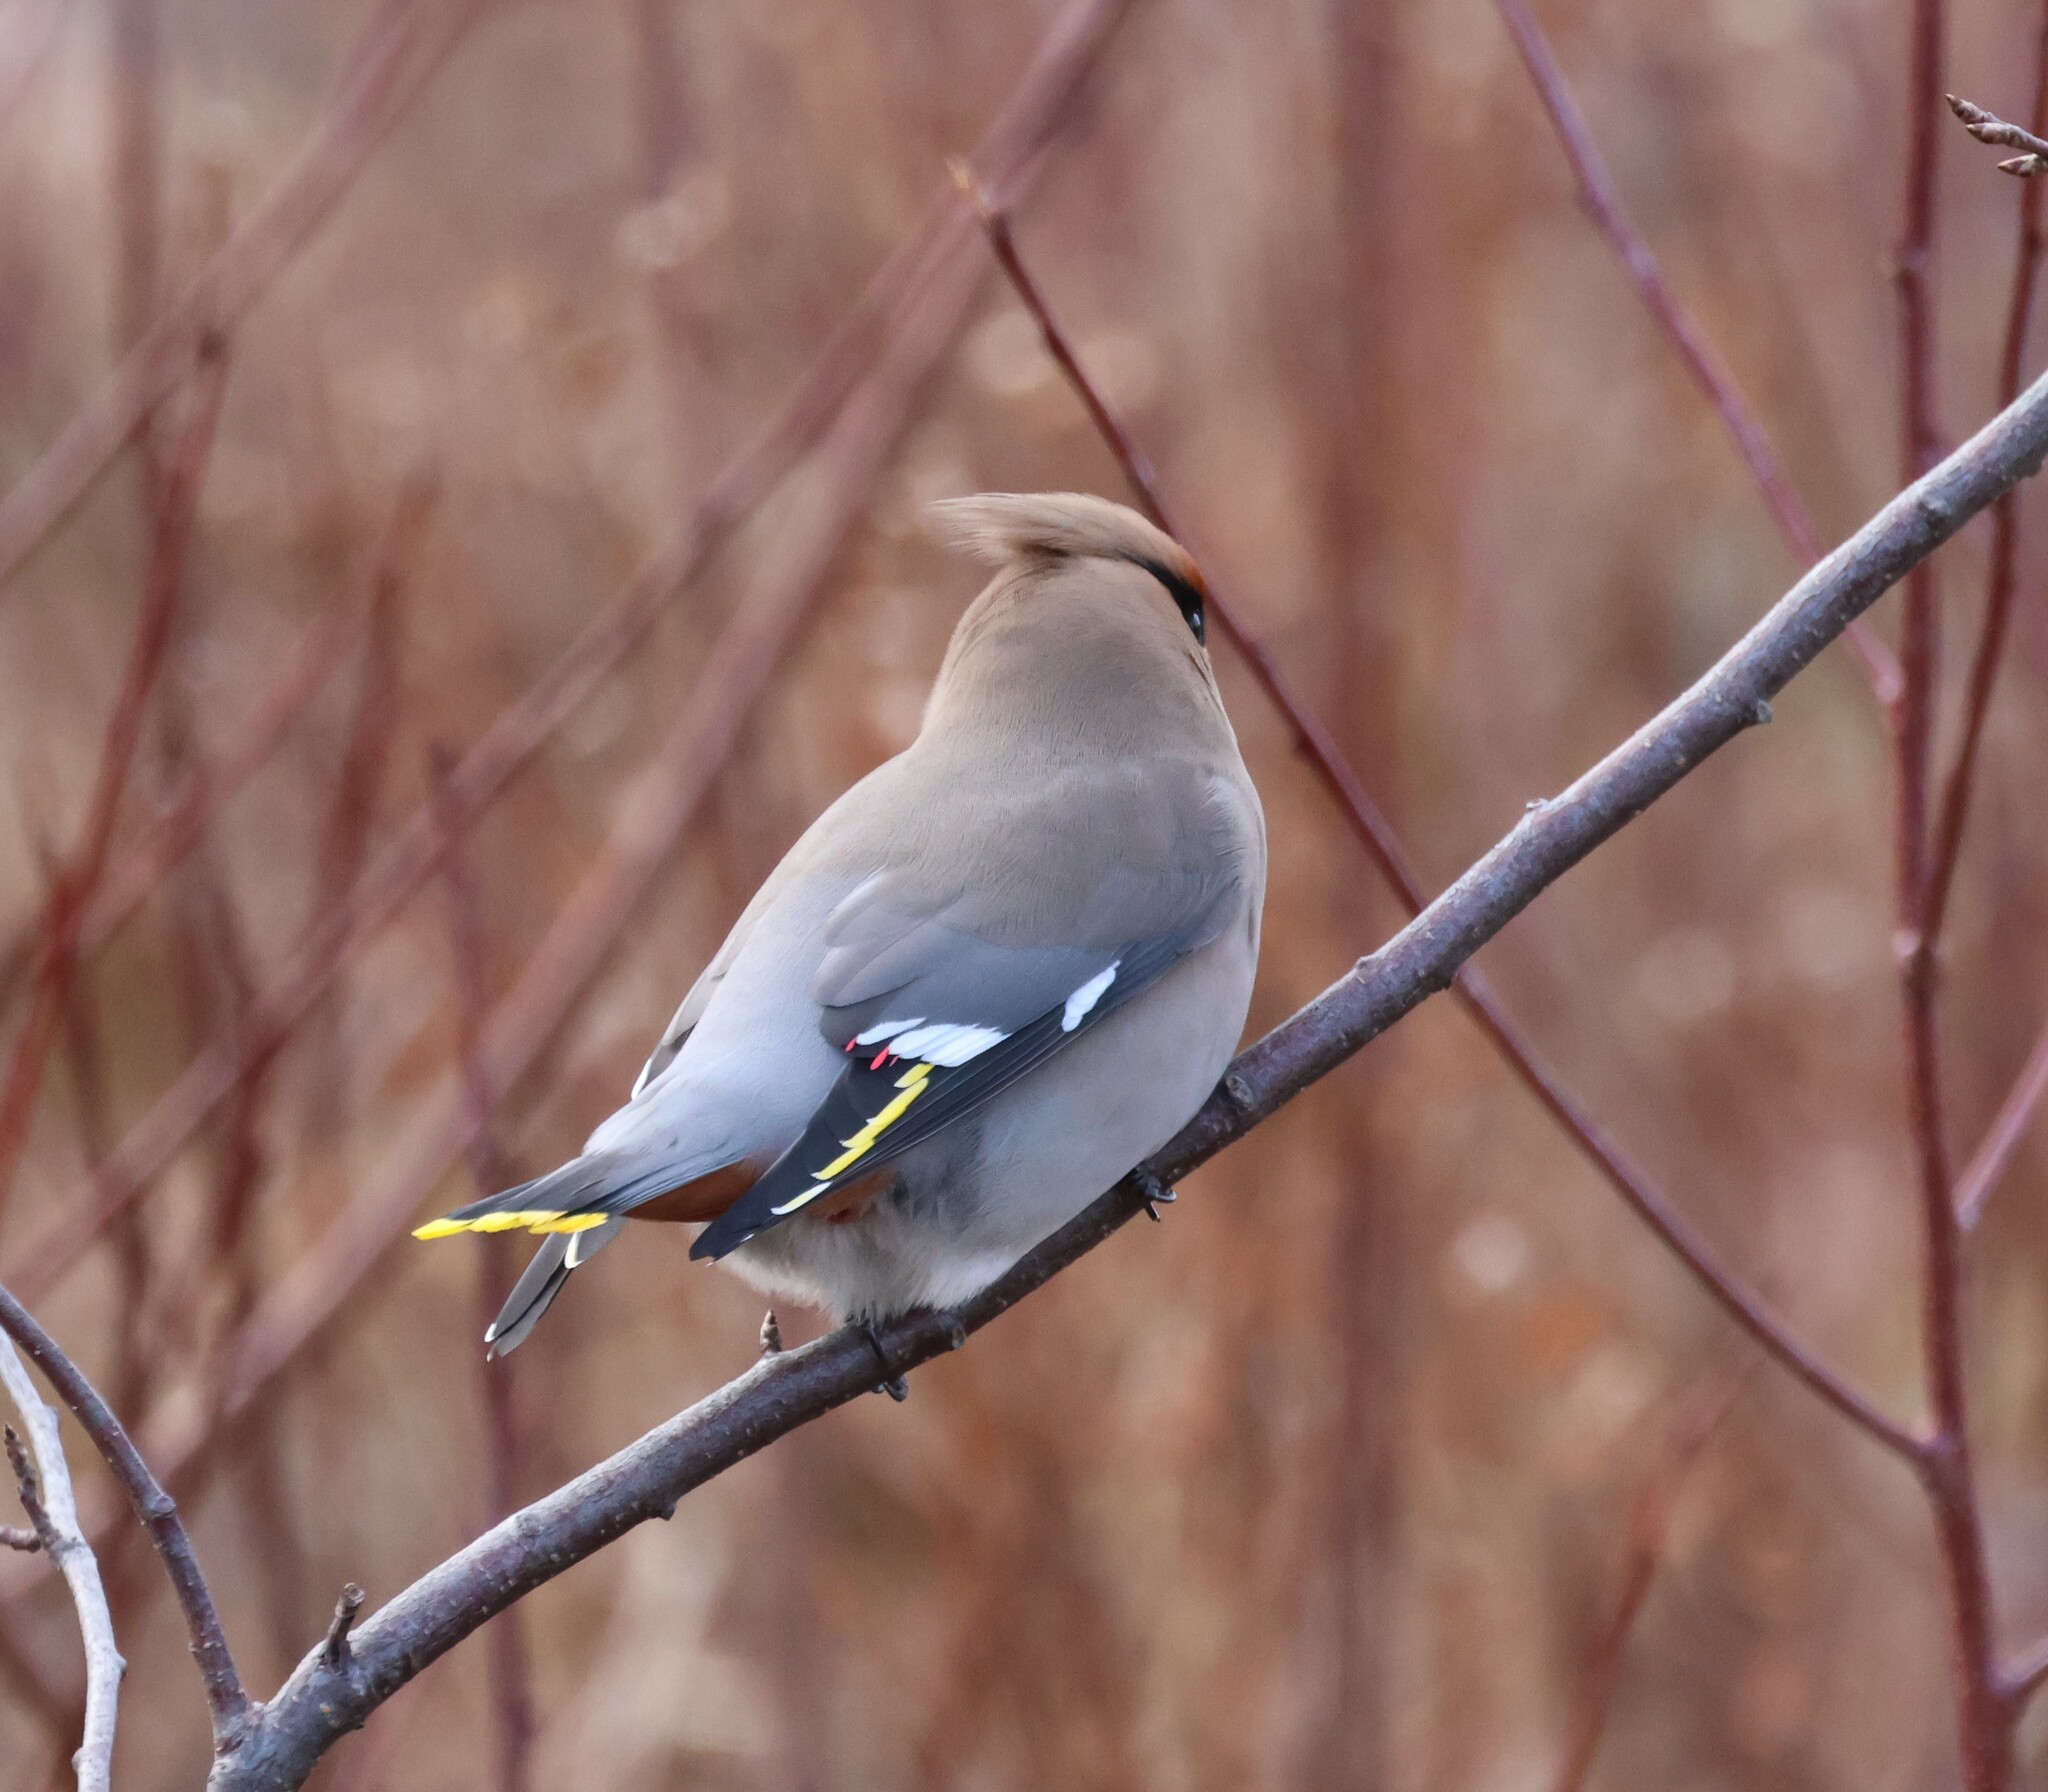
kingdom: Animalia
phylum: Chordata
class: Aves
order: Passeriformes
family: Bombycillidae
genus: Bombycilla
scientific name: Bombycilla garrulus
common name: Bohemian waxwing
